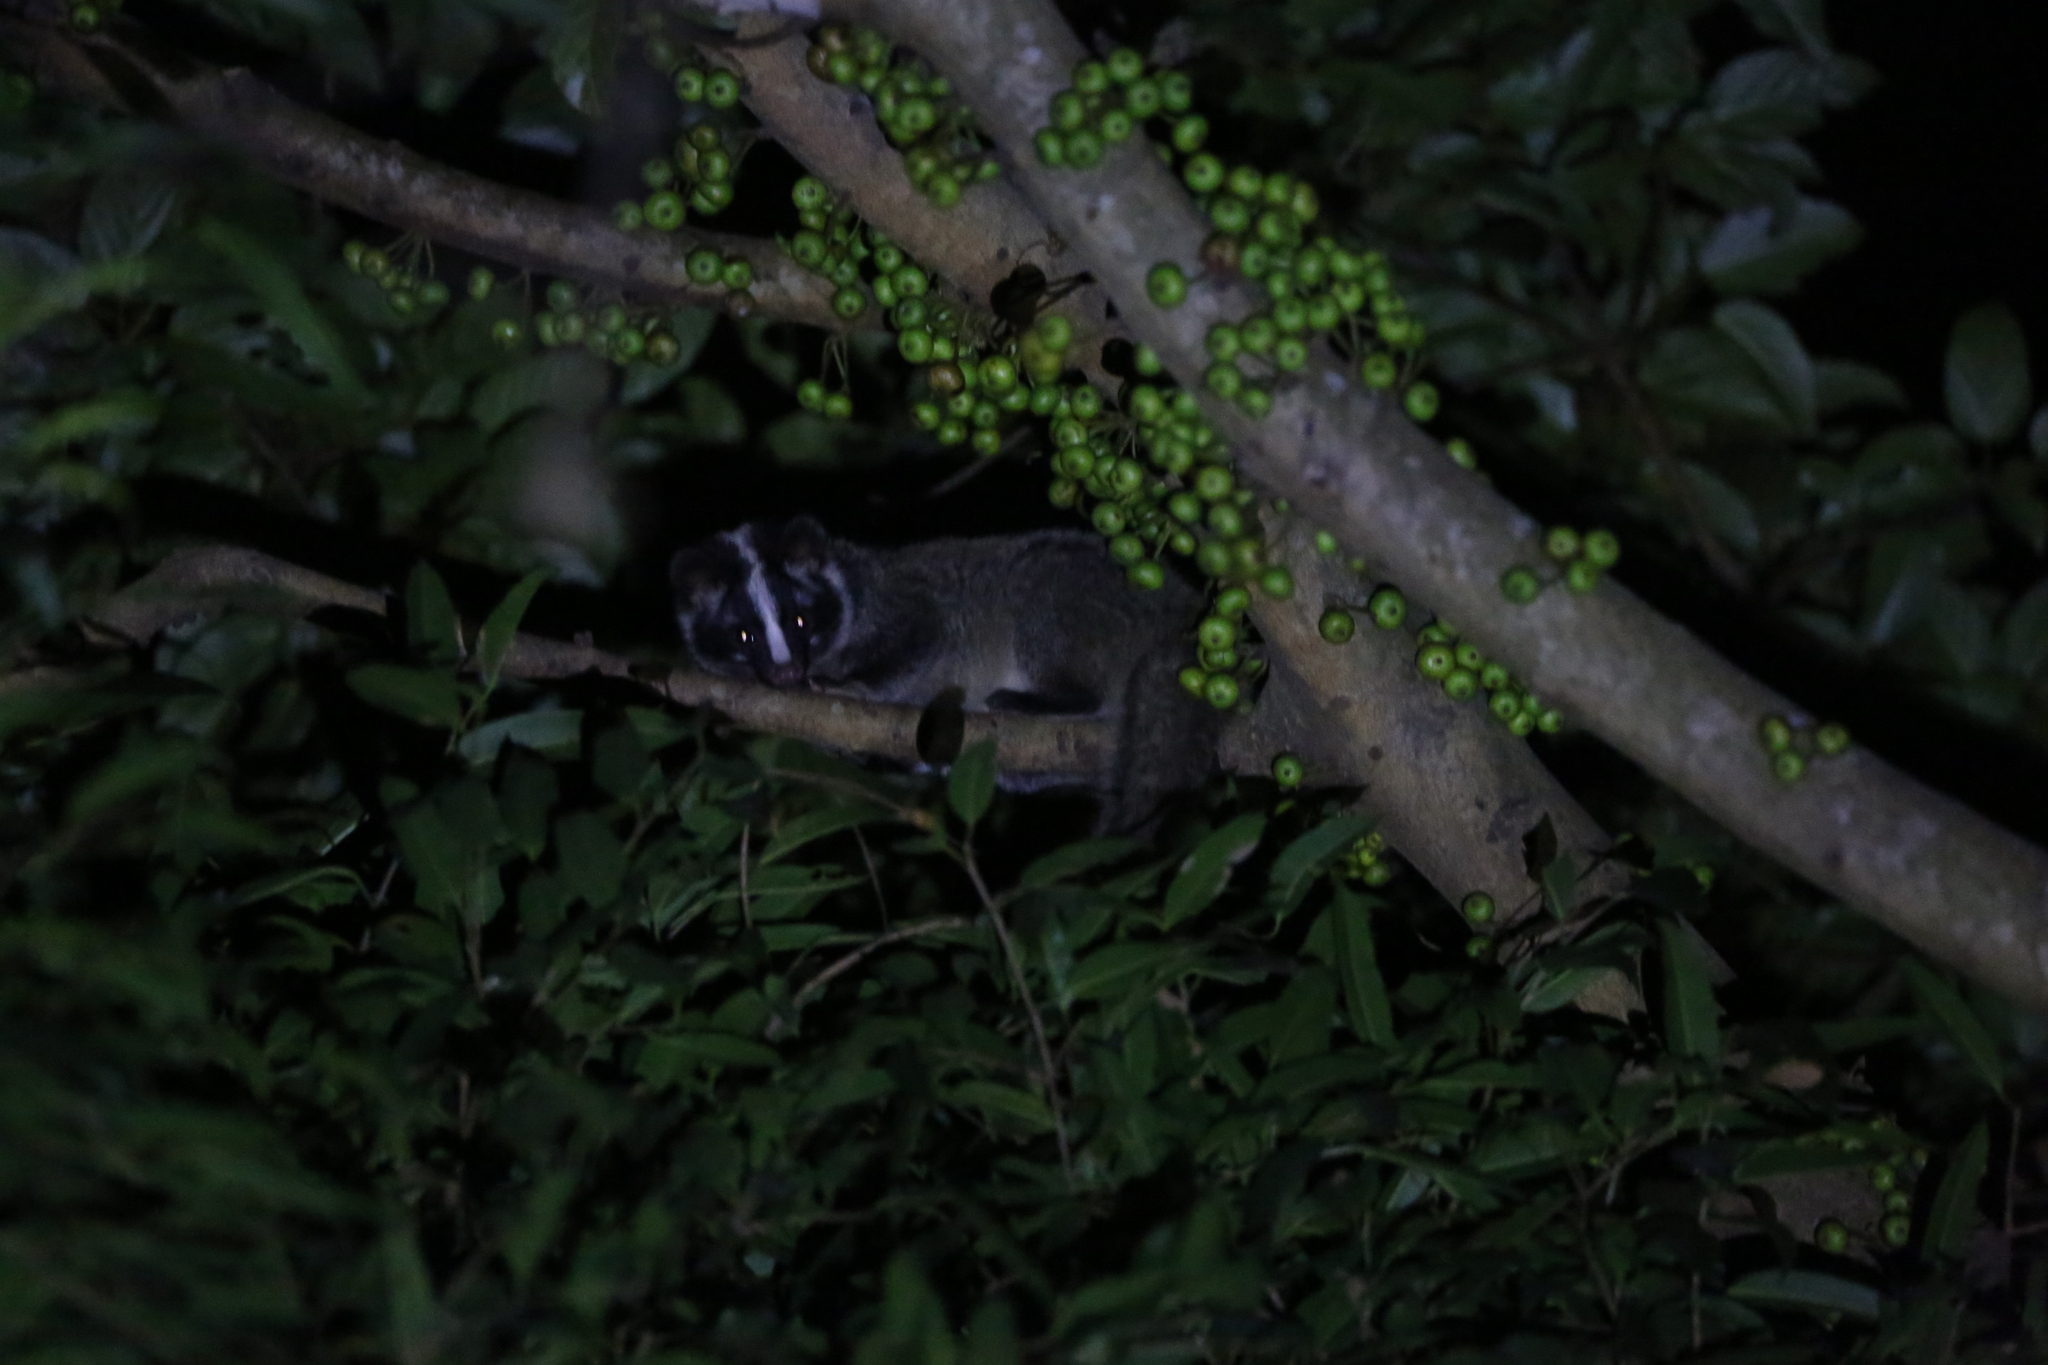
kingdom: Animalia
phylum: Chordata
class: Mammalia
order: Carnivora
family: Viverridae
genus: Paguma
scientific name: Paguma larvata
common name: Masked palm civet
